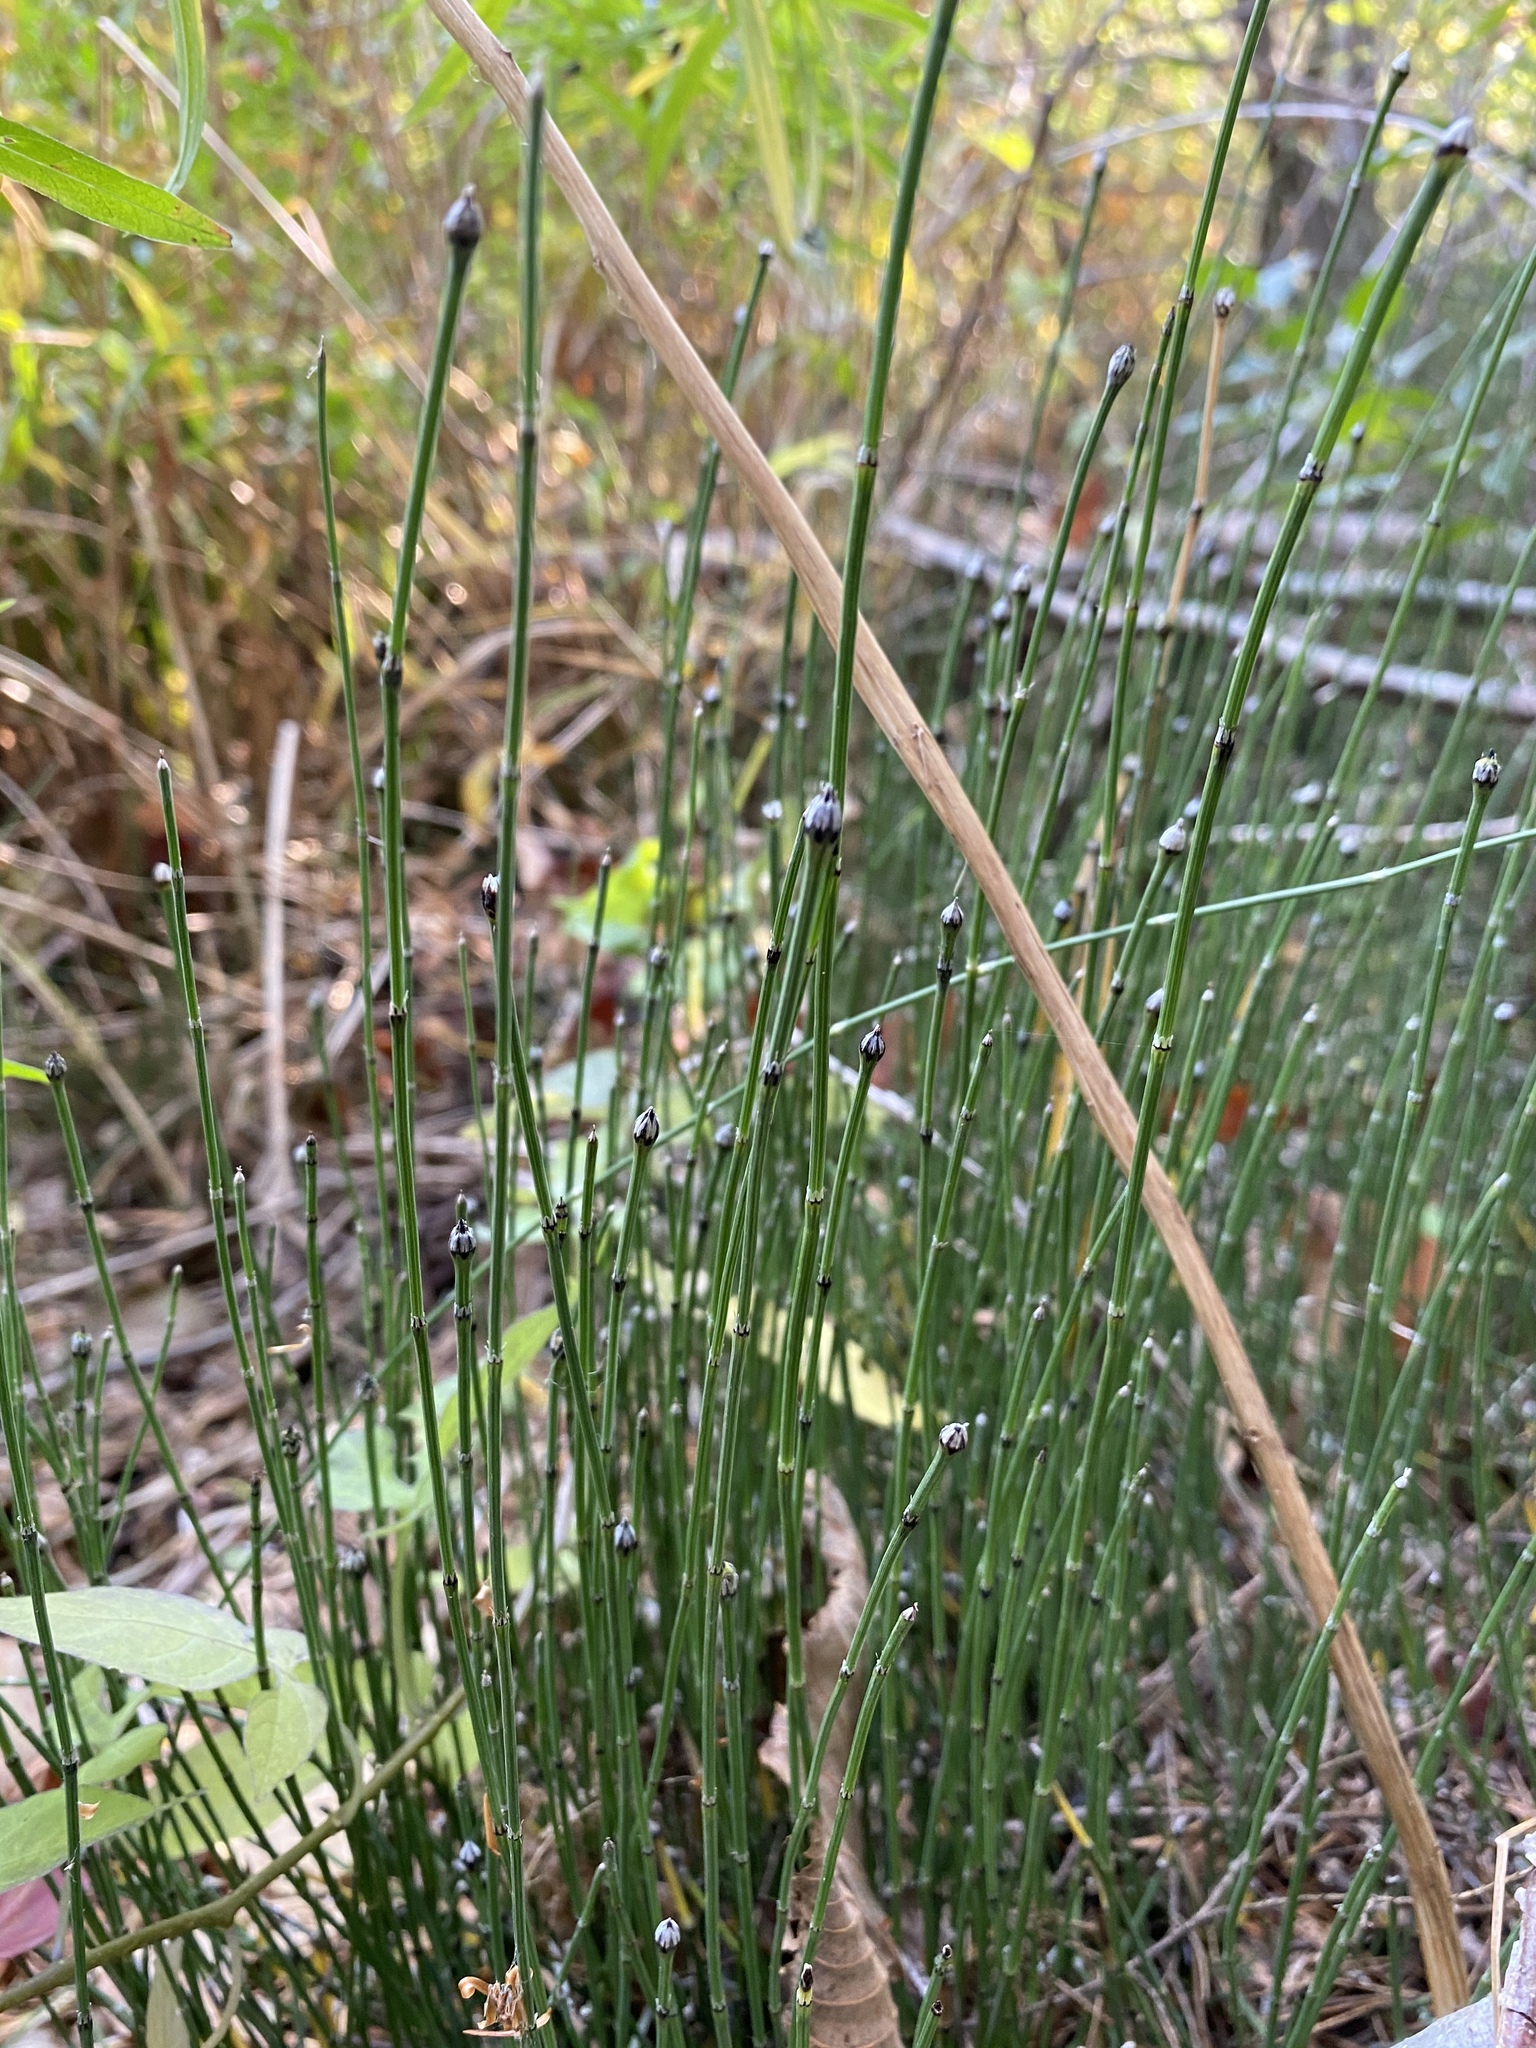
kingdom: Plantae
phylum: Tracheophyta
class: Polypodiopsida
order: Equisetales
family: Equisetaceae
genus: Equisetum
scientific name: Equisetum variegatum
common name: Variegated horsetail
